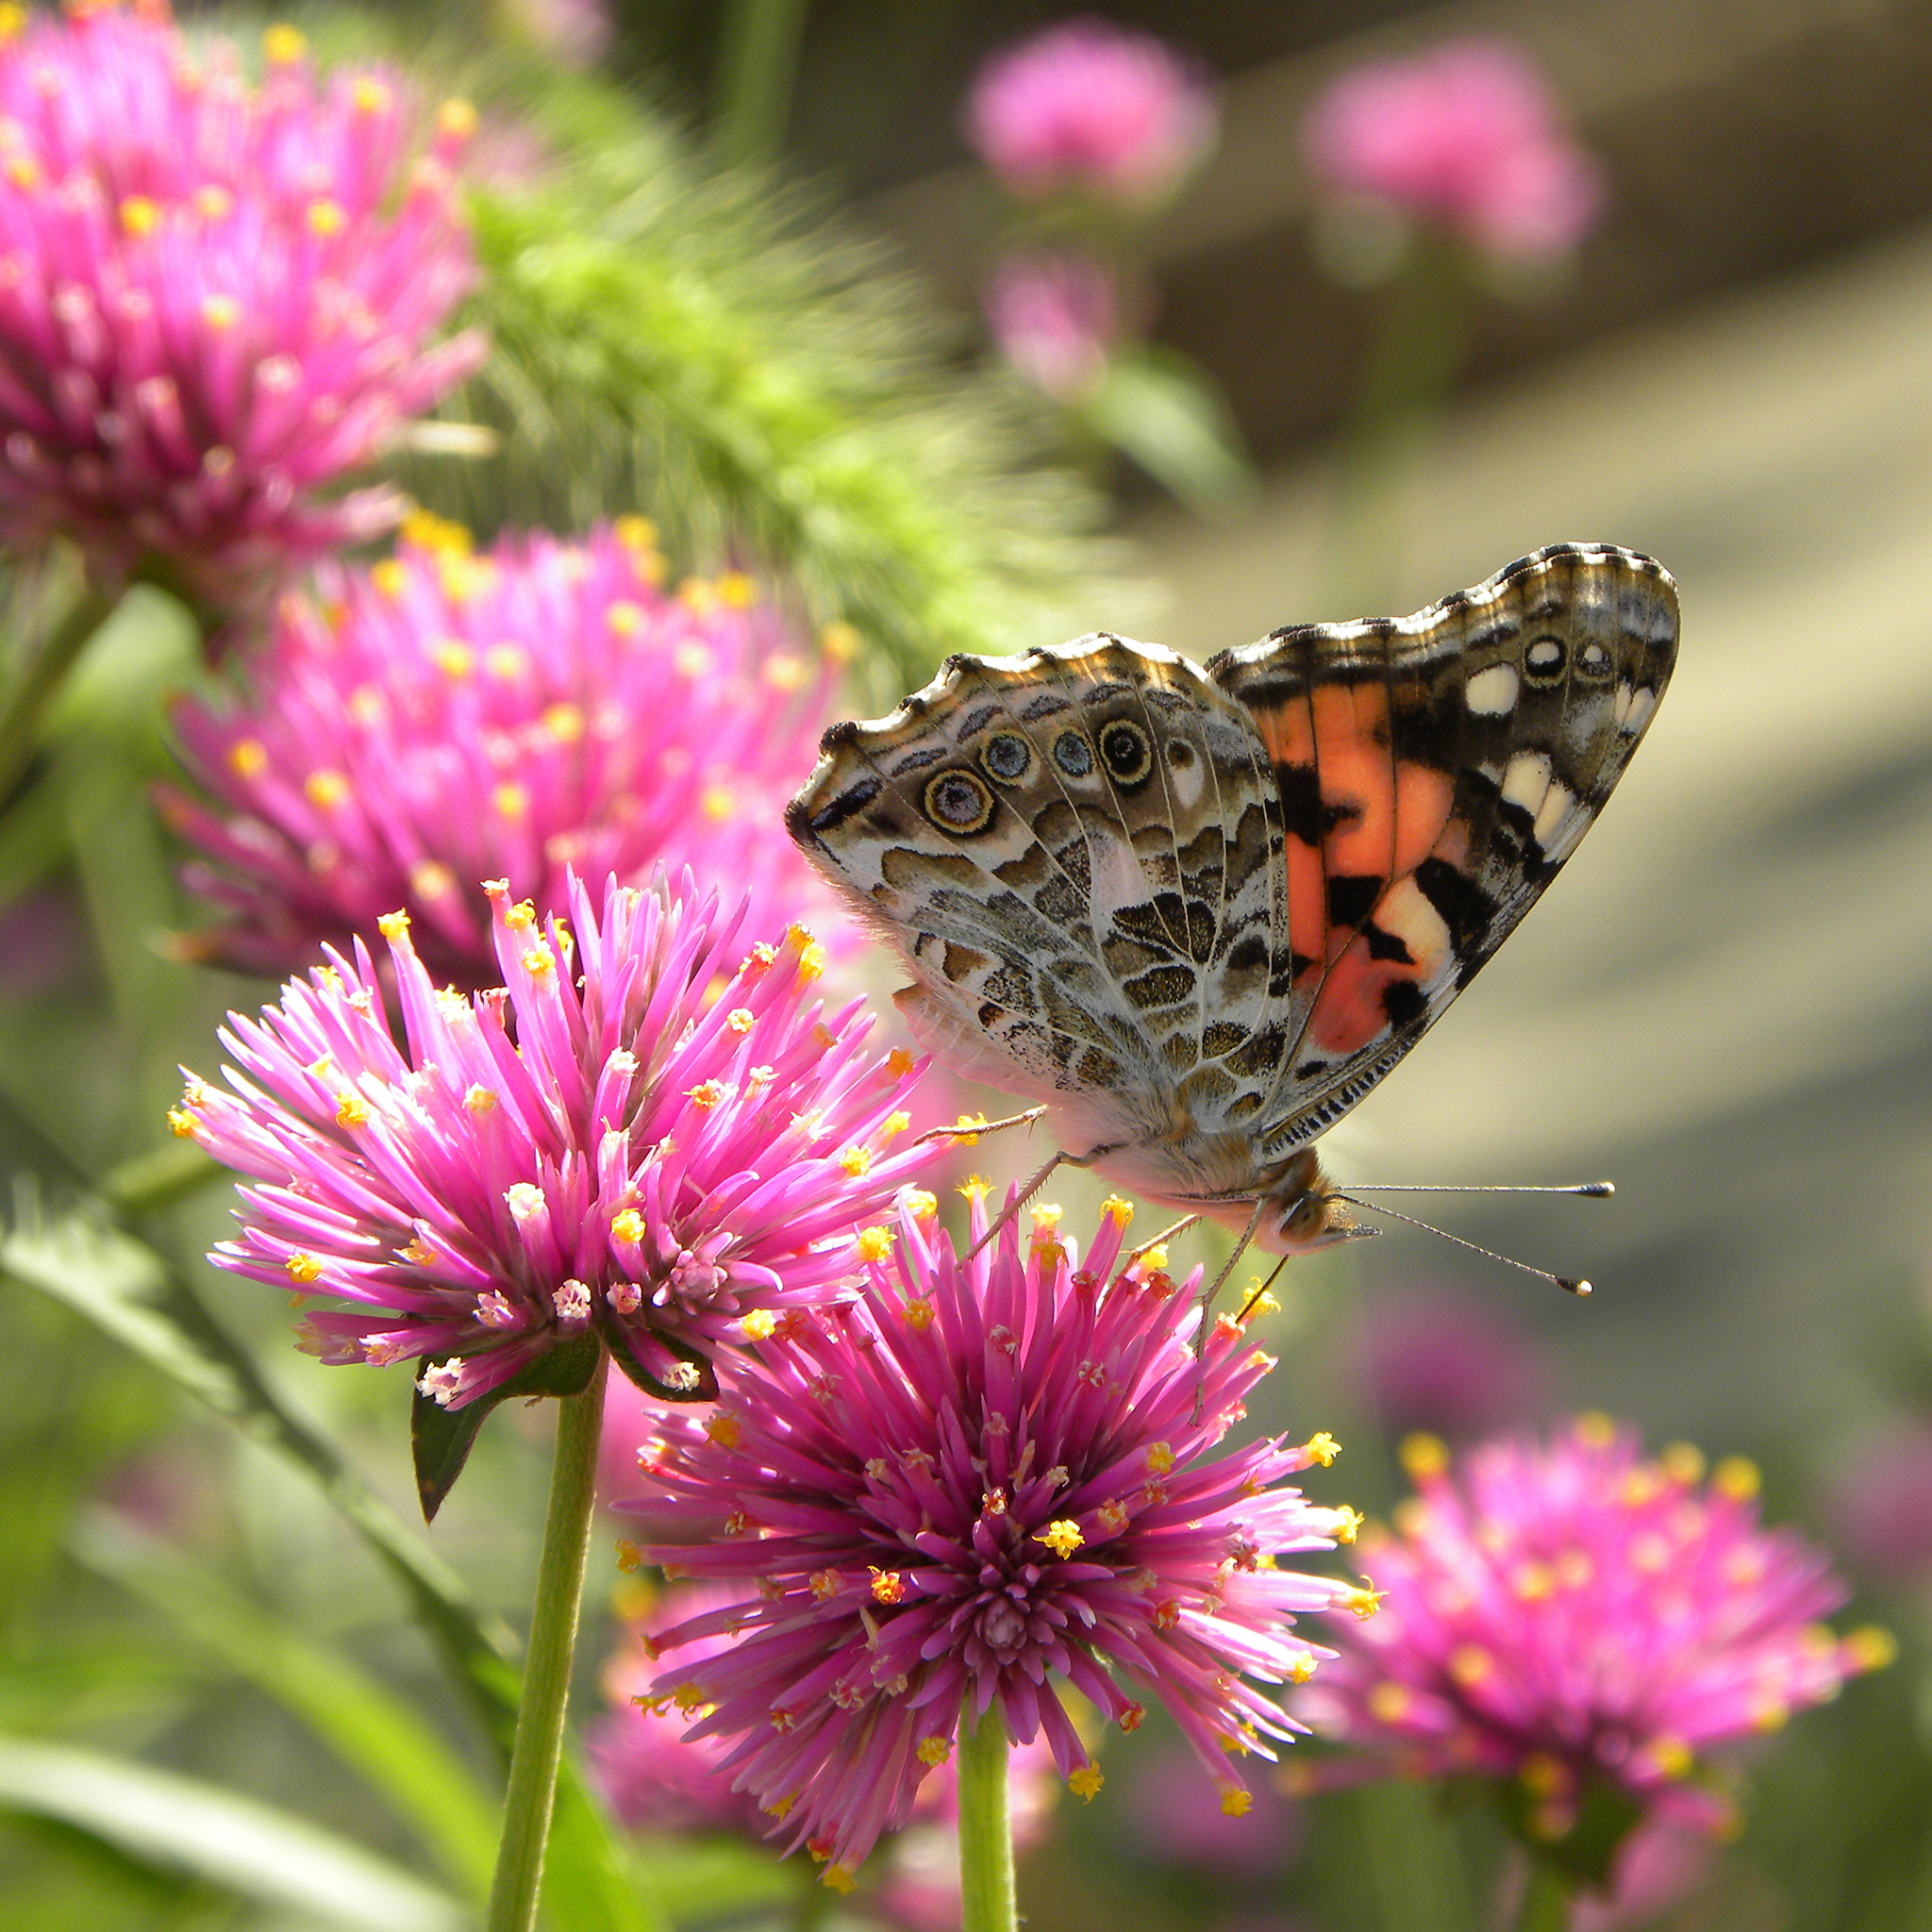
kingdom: Animalia
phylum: Arthropoda
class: Insecta
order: Lepidoptera
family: Nymphalidae
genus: Vanessa
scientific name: Vanessa cardui
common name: Painted lady
